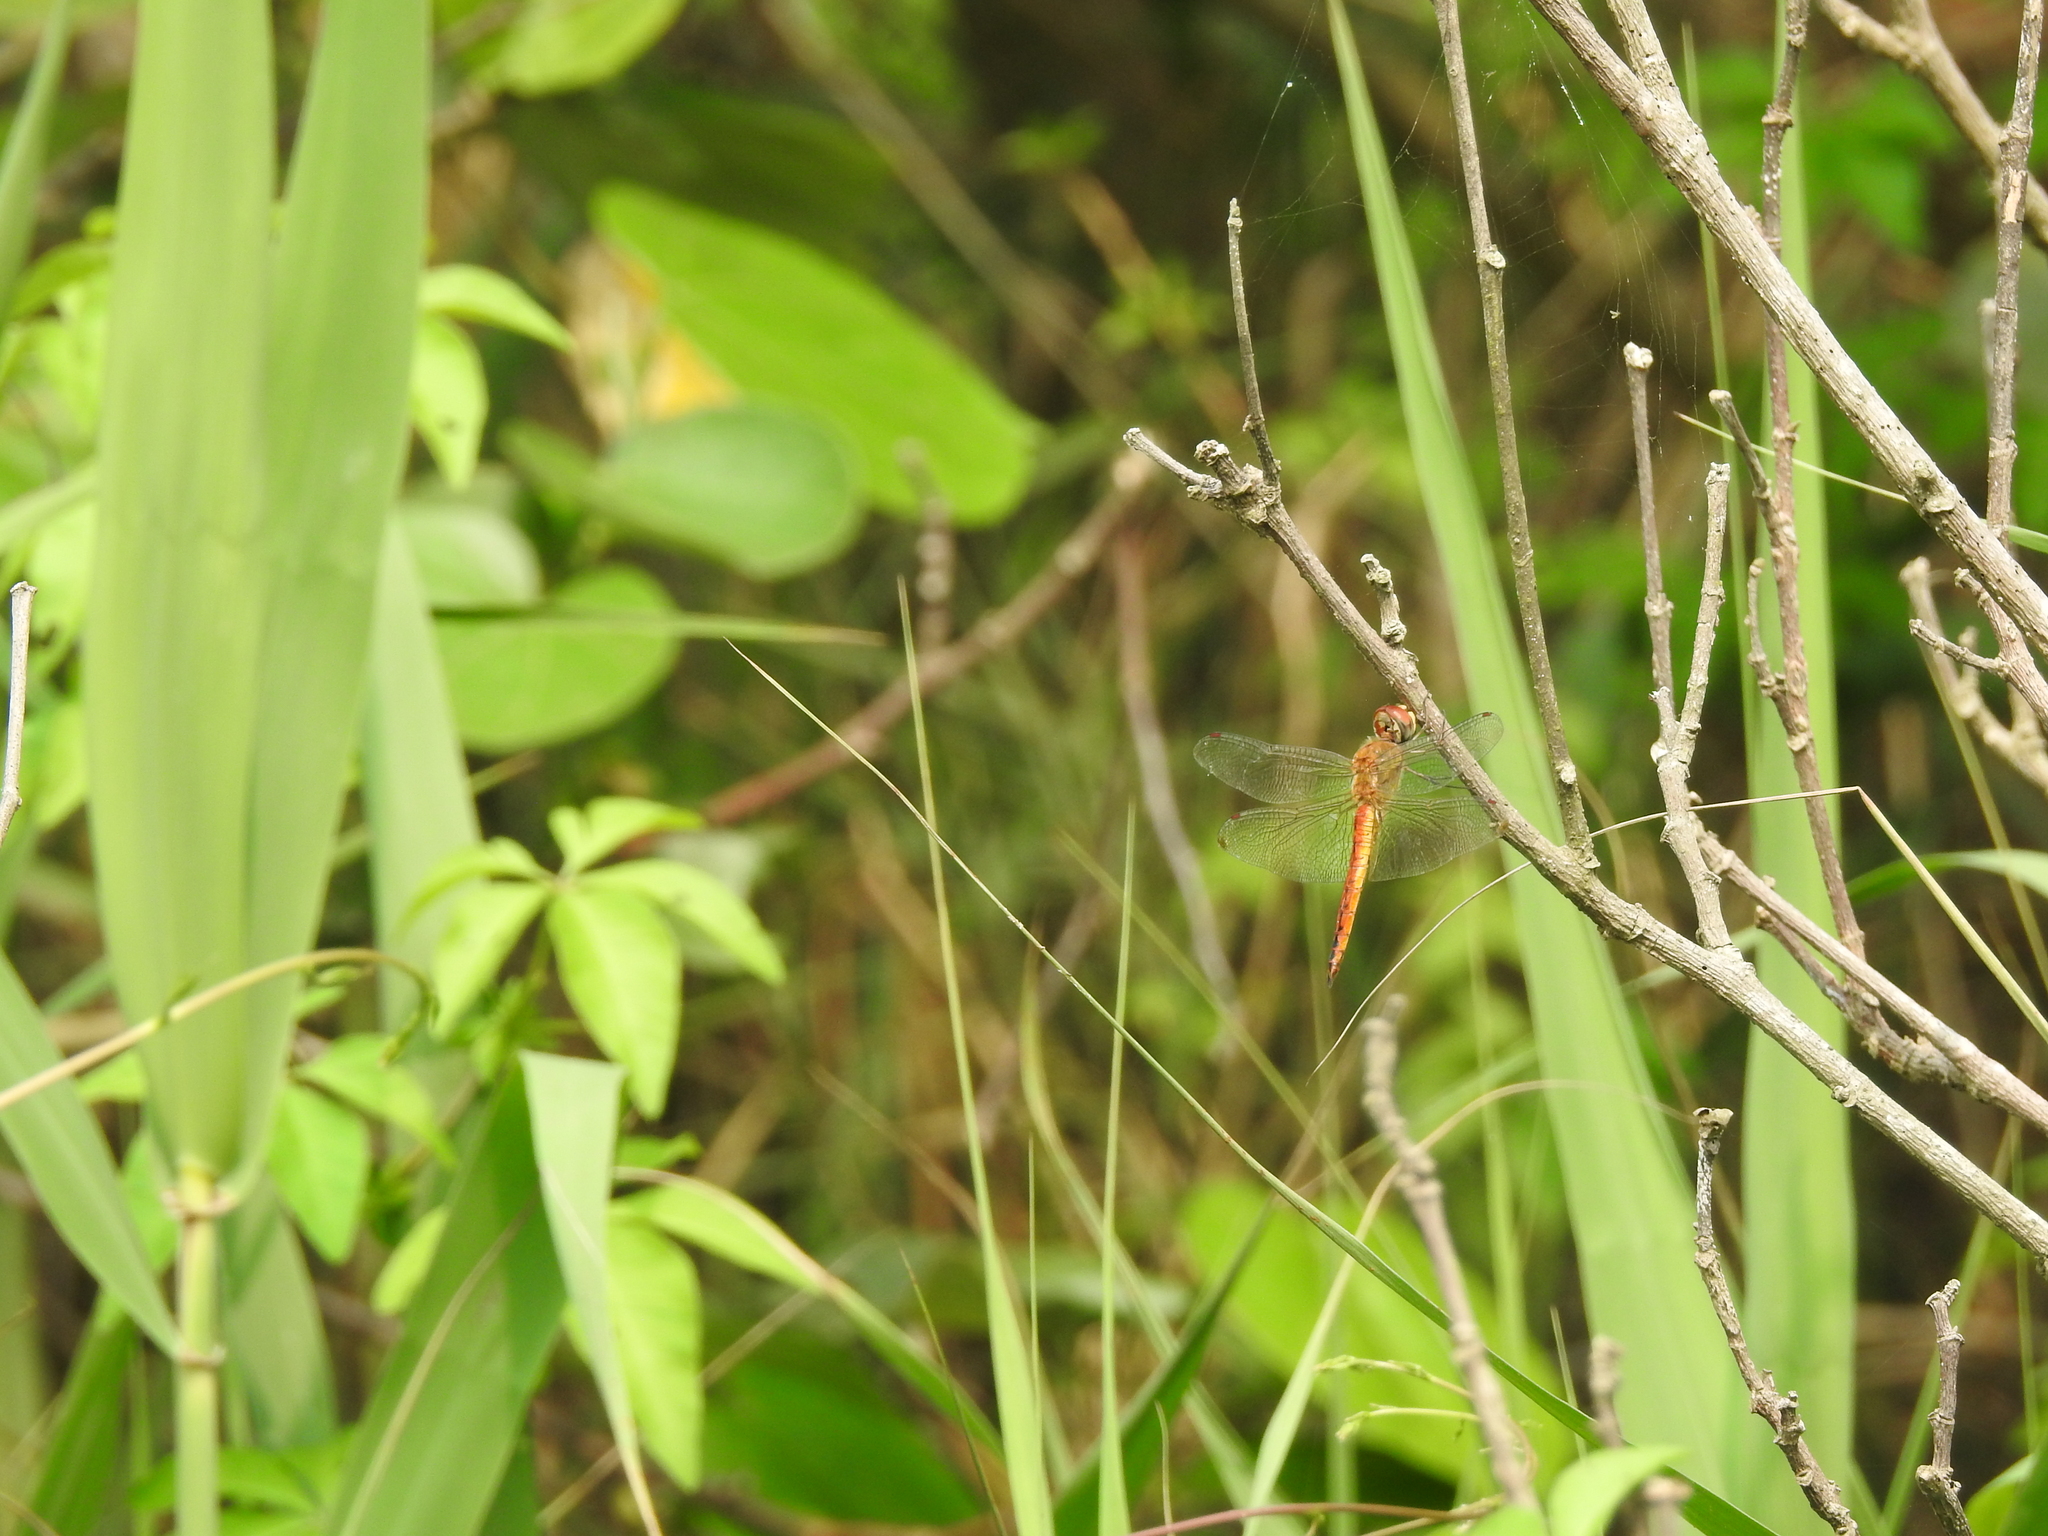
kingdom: Animalia
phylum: Arthropoda
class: Insecta
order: Odonata
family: Libellulidae
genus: Pantala
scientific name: Pantala flavescens
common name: Wandering glider
